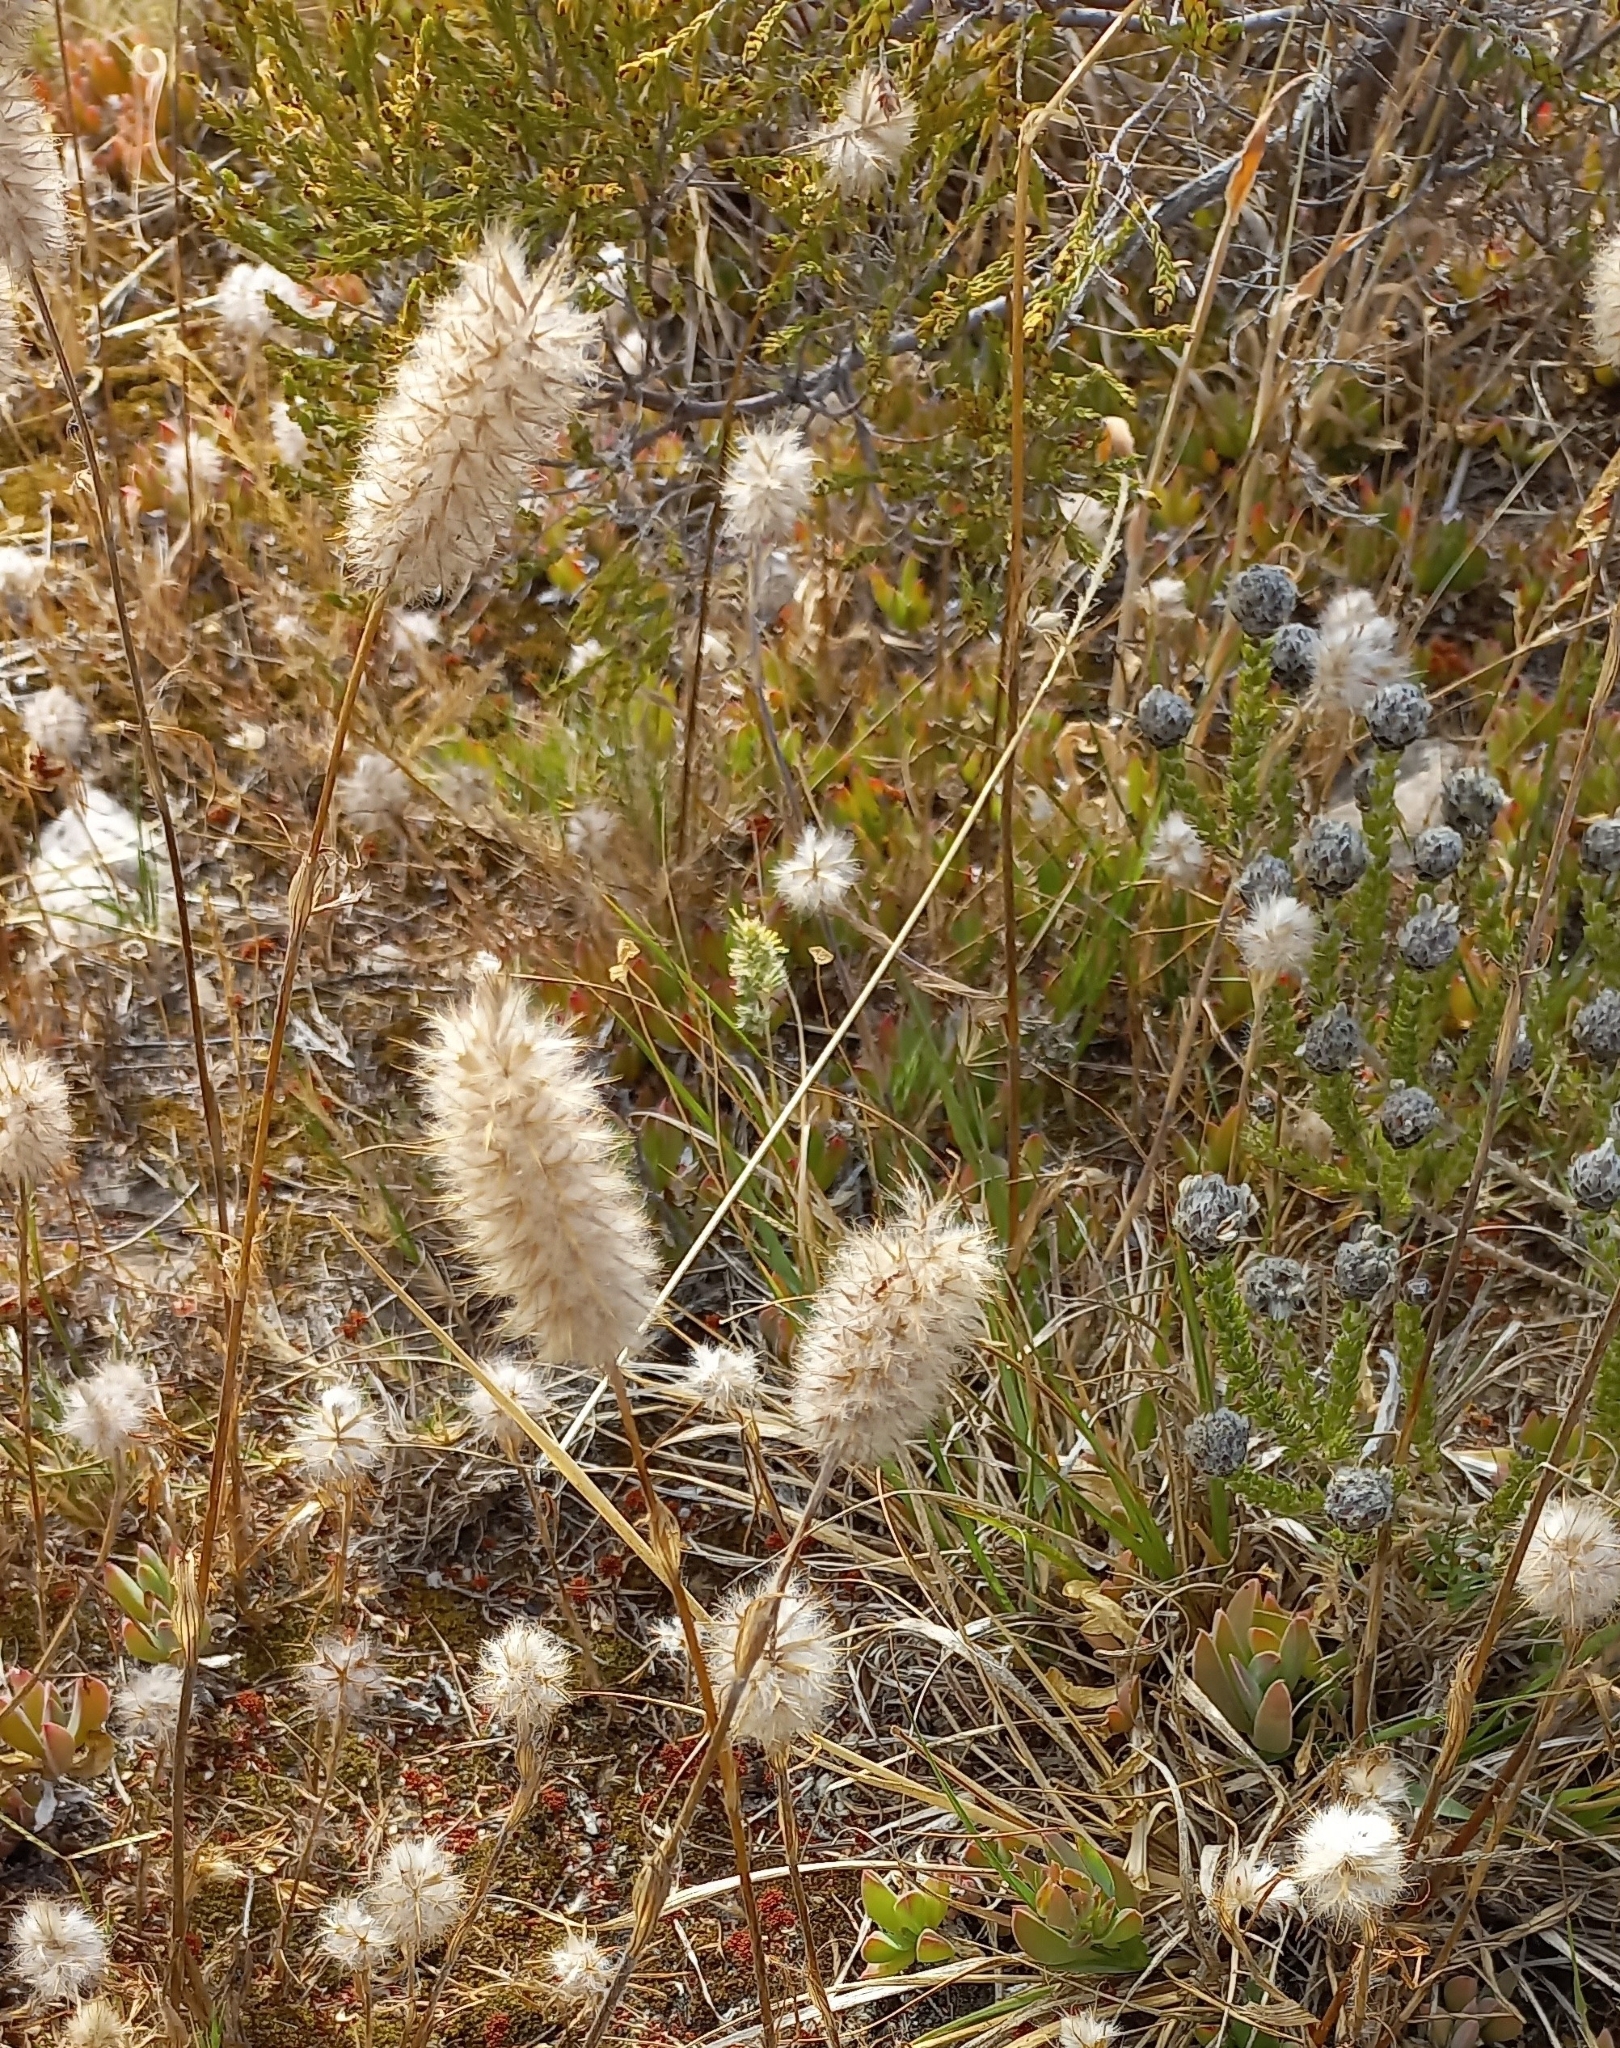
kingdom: Plantae
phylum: Tracheophyta
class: Magnoliopsida
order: Fabales
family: Fabaceae
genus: Trifolium
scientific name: Trifolium angustifolium
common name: Narrow clover
